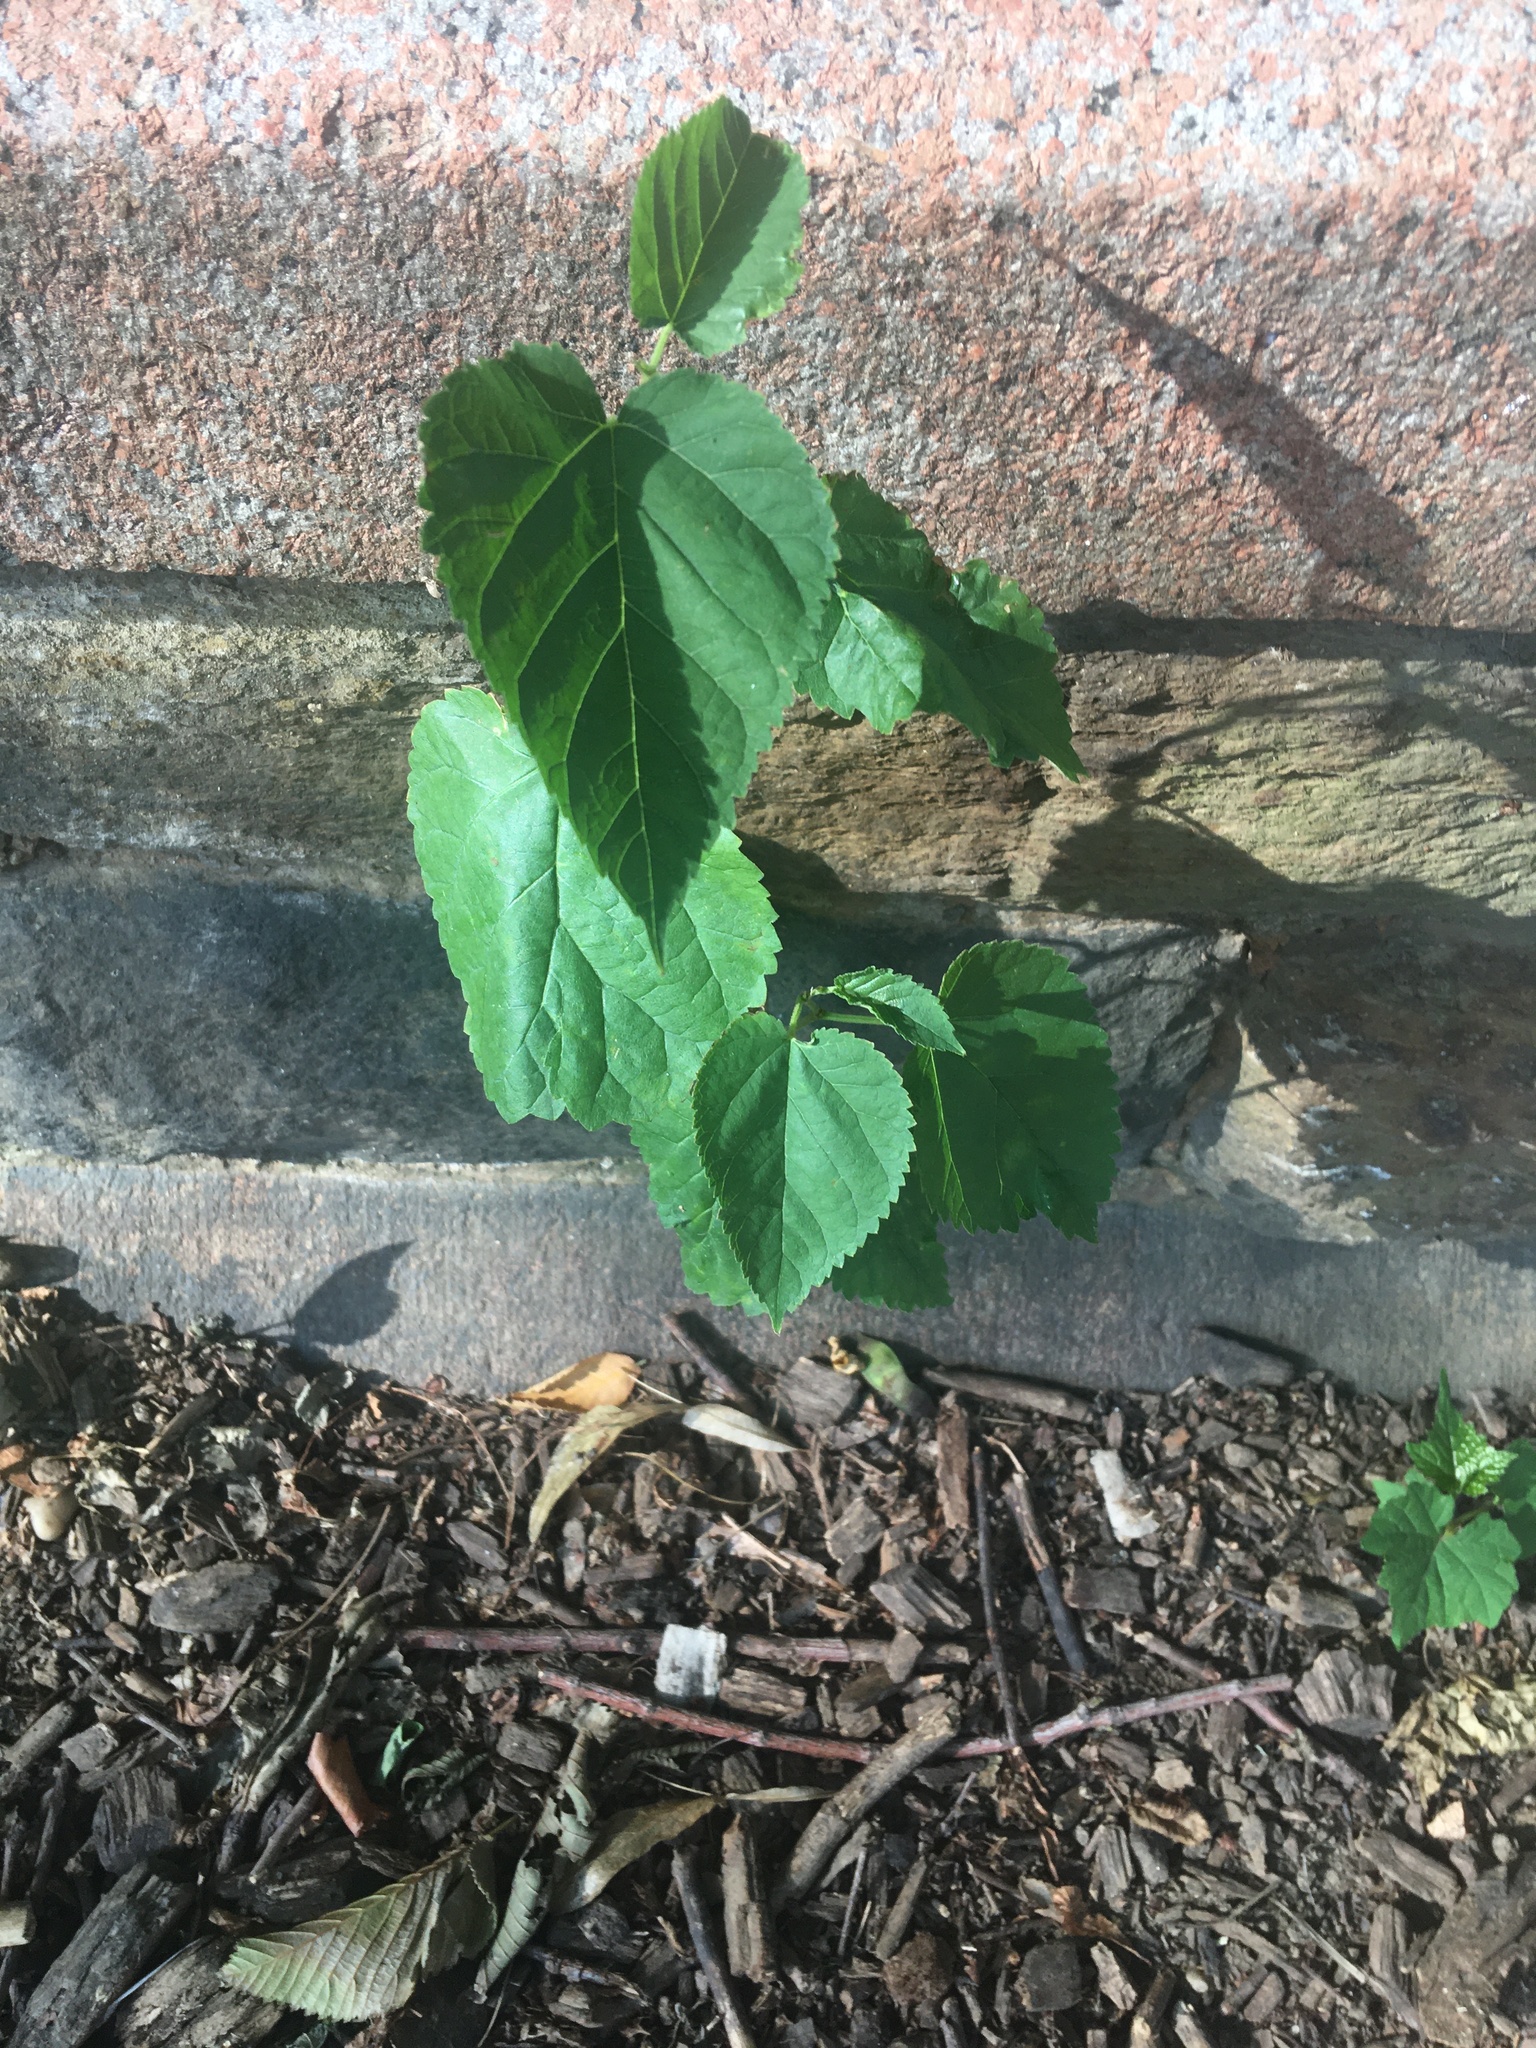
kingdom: Plantae
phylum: Tracheophyta
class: Magnoliopsida
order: Rosales
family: Moraceae
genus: Morus
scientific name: Morus alba
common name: White mulberry
